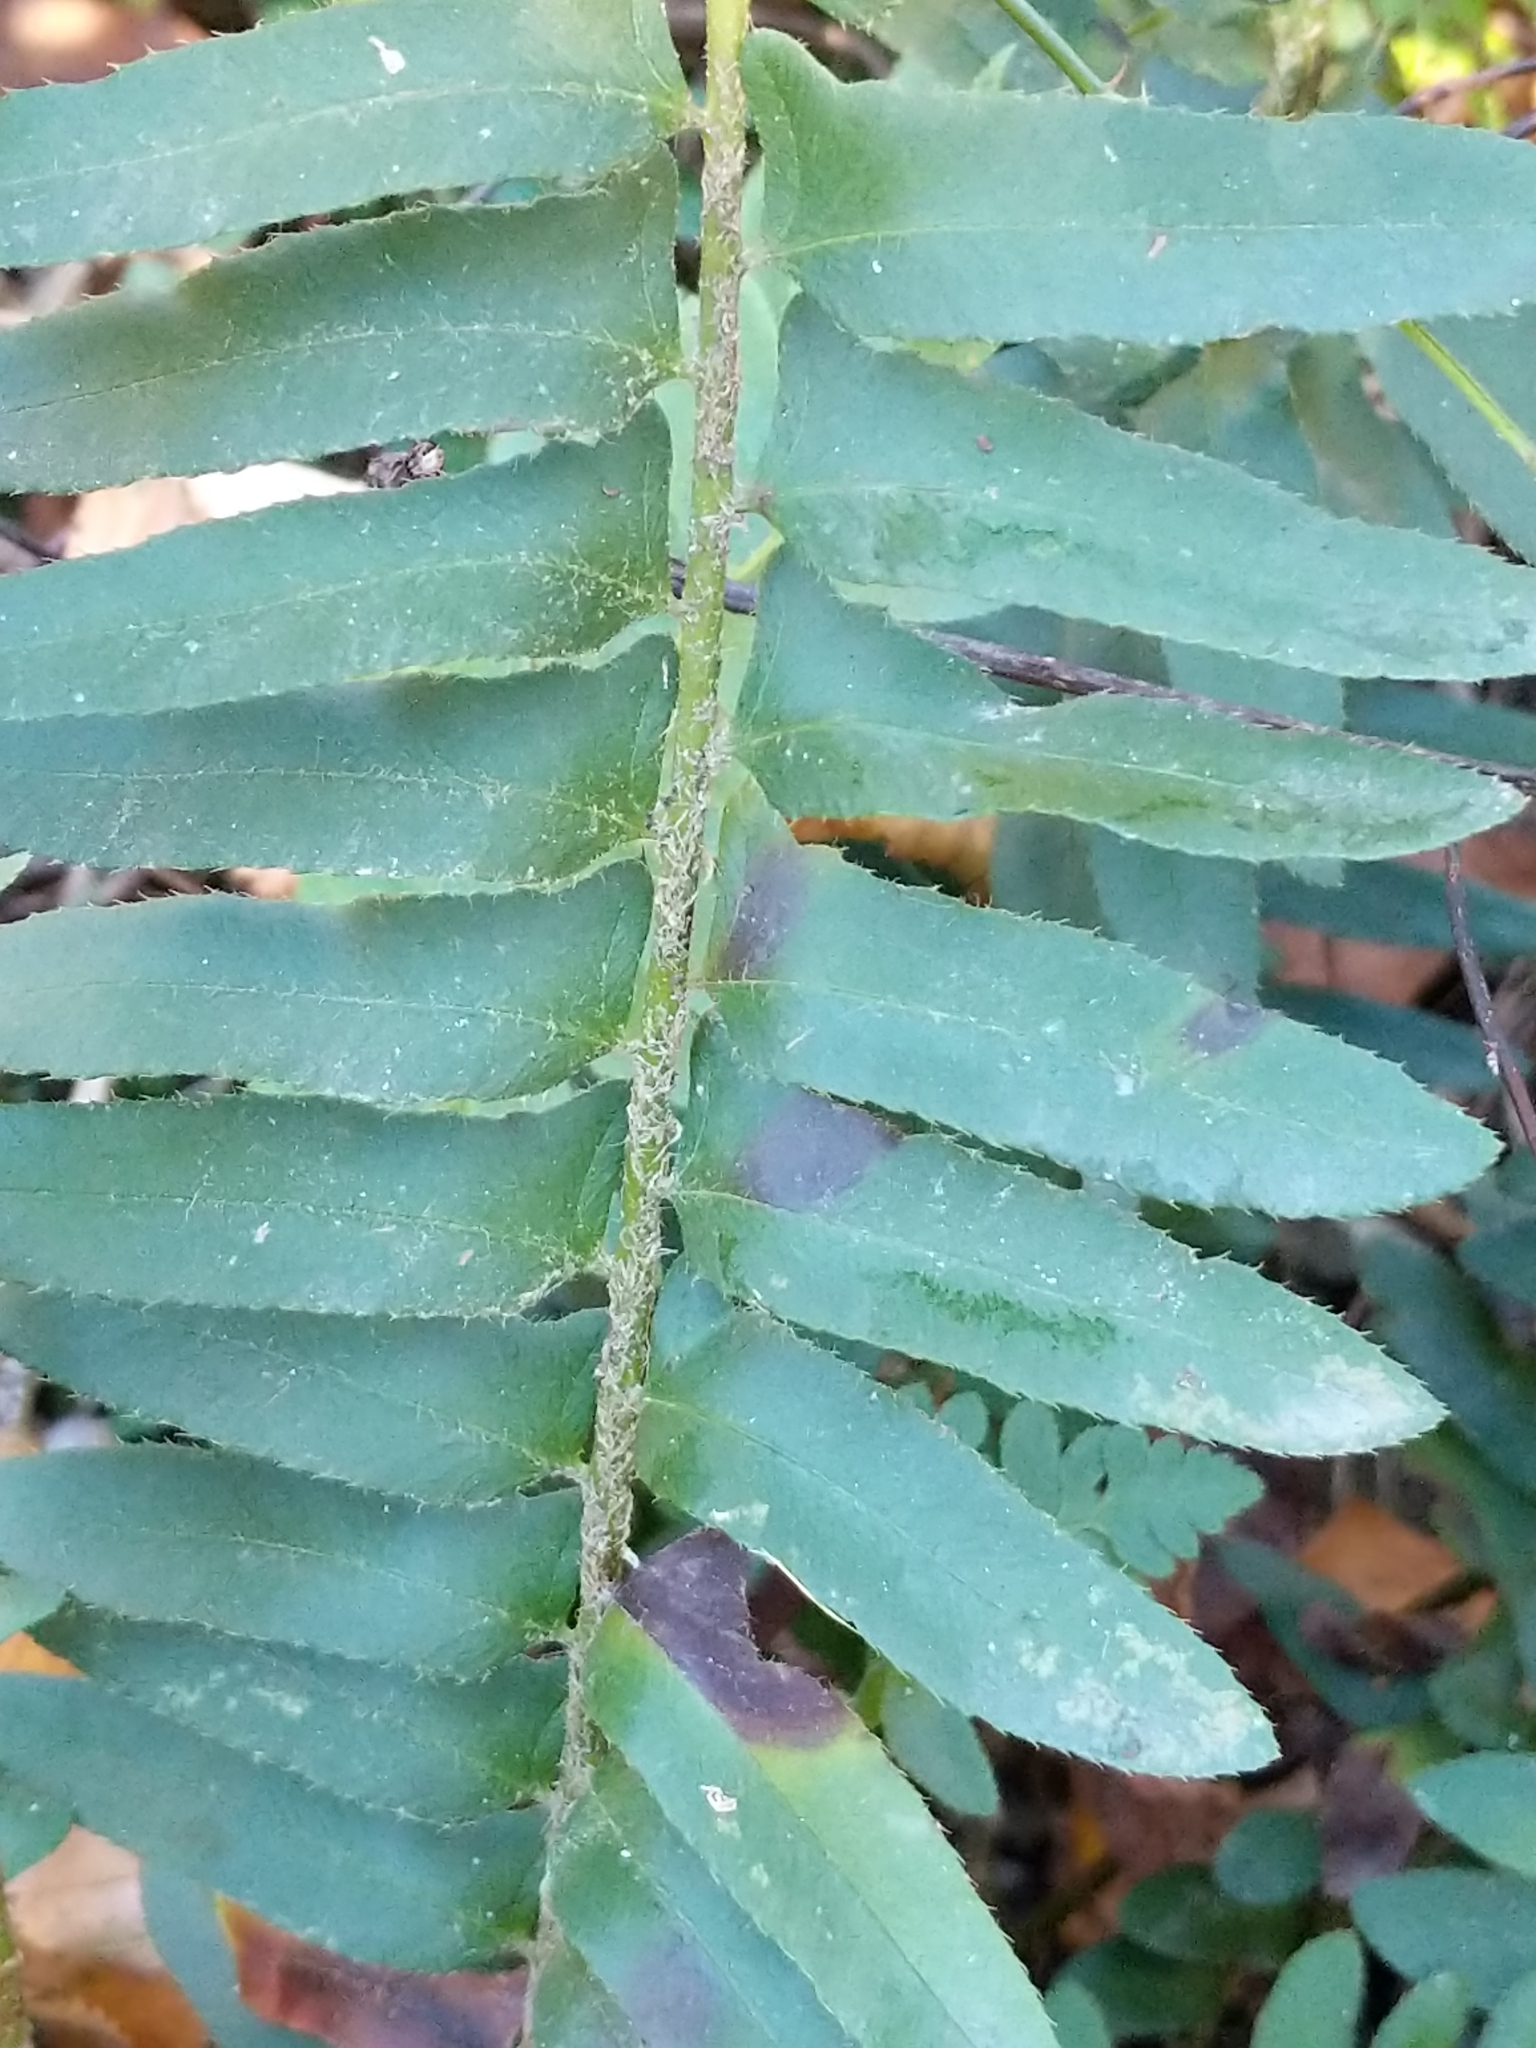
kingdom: Plantae
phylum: Tracheophyta
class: Polypodiopsida
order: Polypodiales
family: Dryopteridaceae
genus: Polystichum
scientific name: Polystichum acrostichoides
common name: Christmas fern
